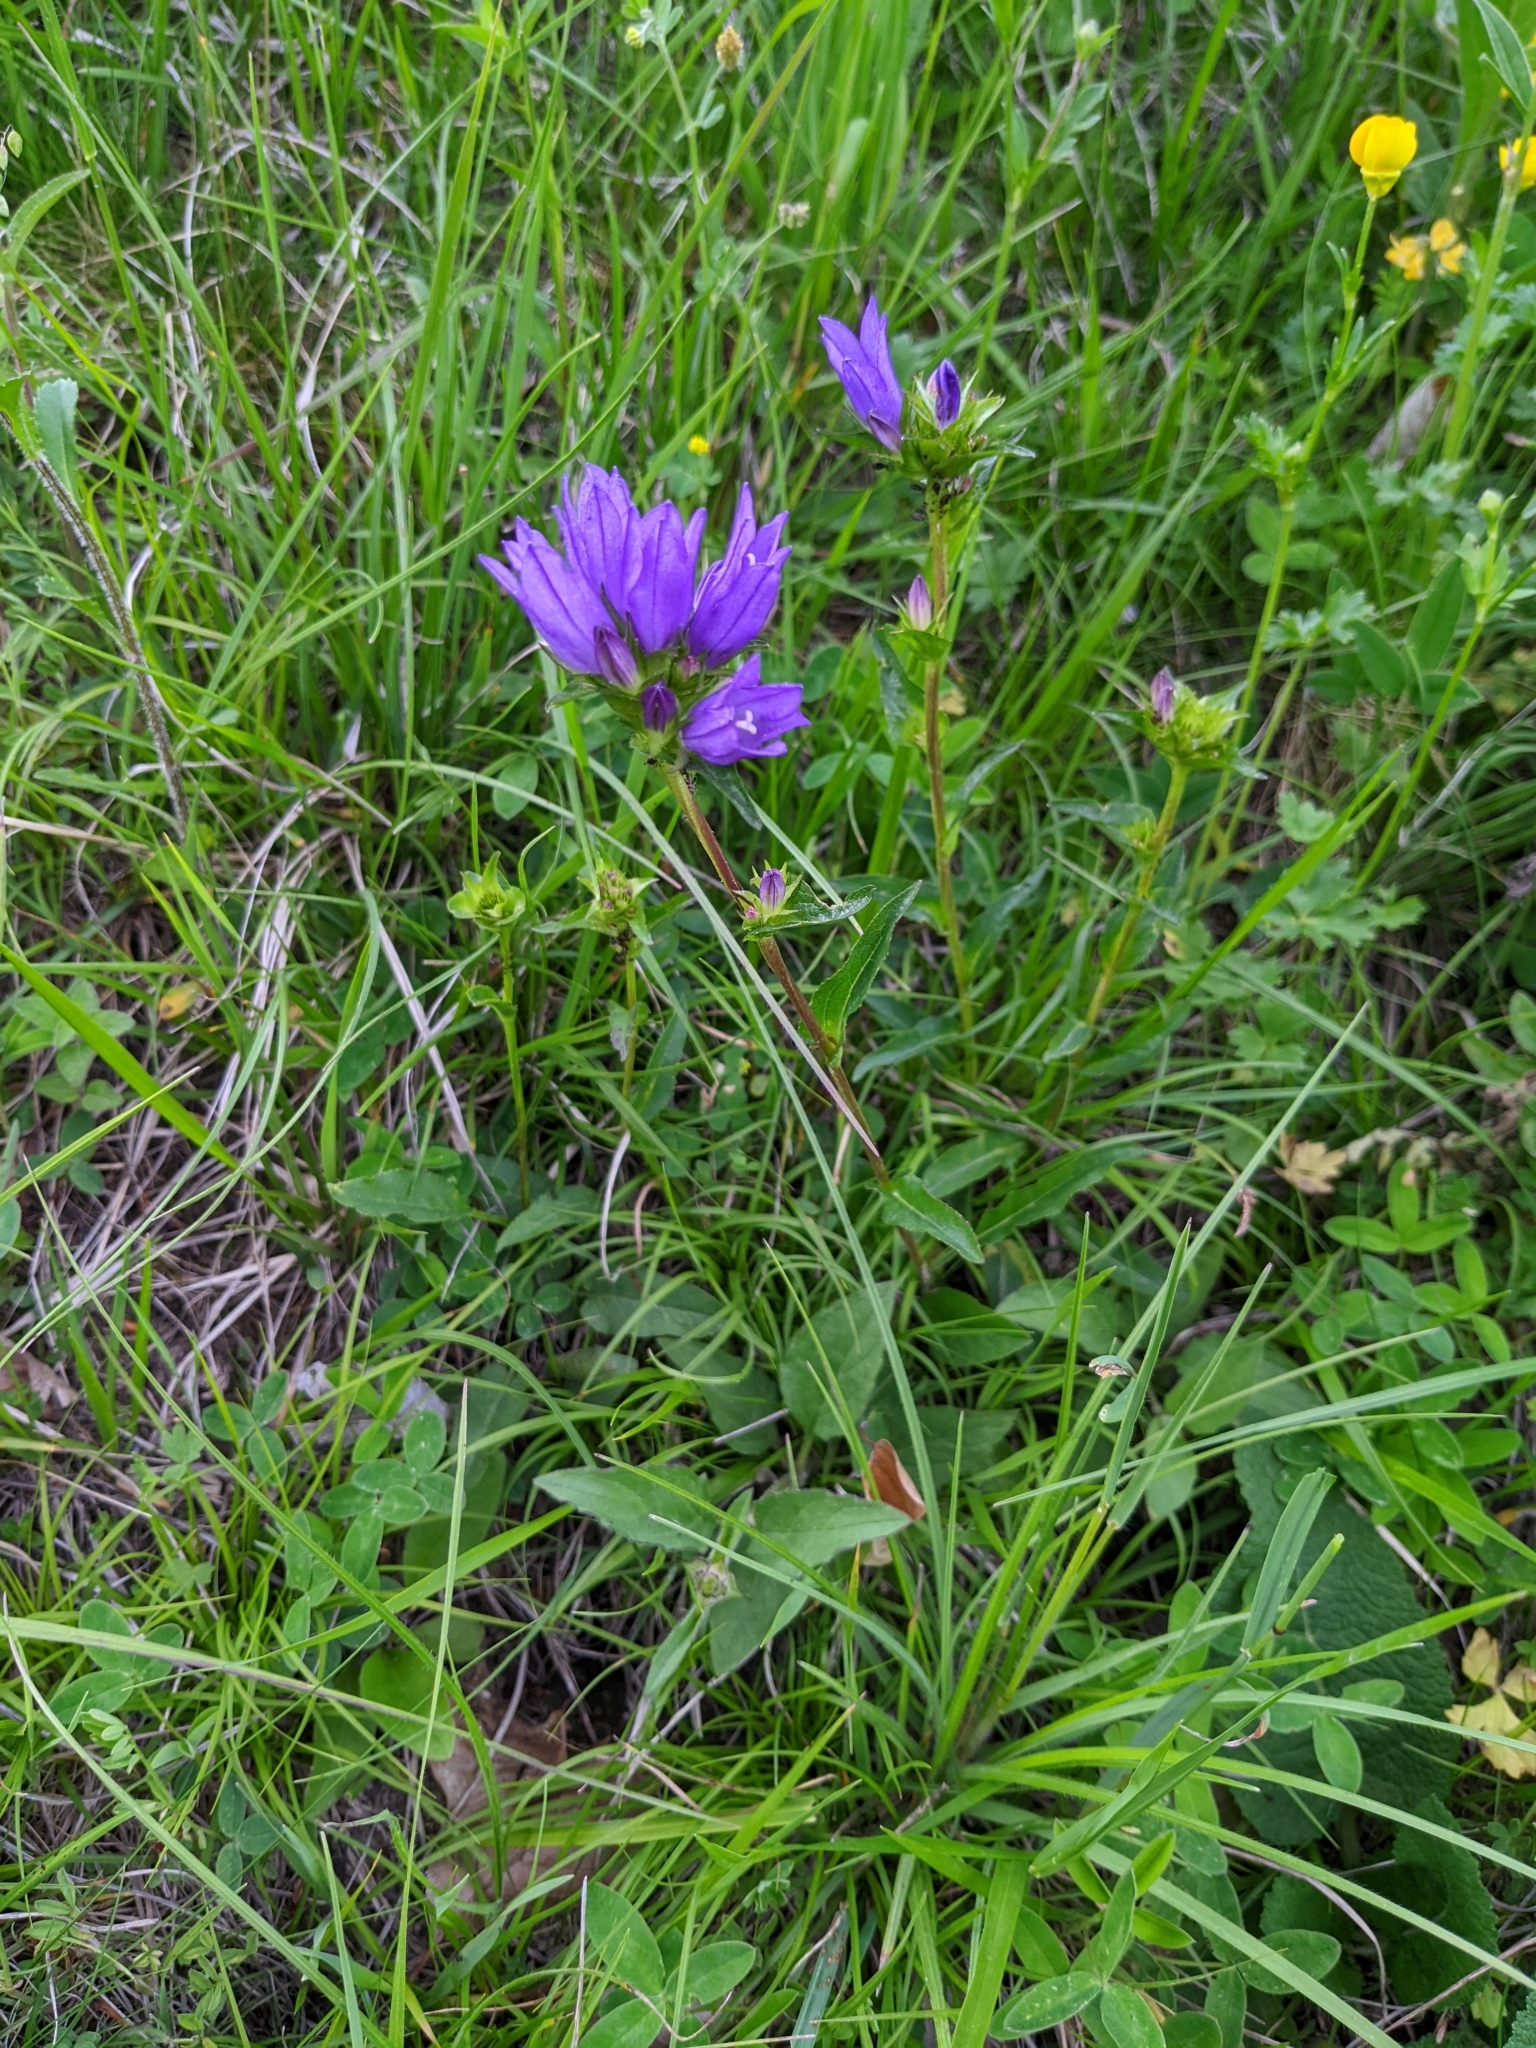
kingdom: Plantae
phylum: Tracheophyta
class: Magnoliopsida
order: Asterales
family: Campanulaceae
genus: Campanula
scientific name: Campanula glomerata
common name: Clustered bellflower
